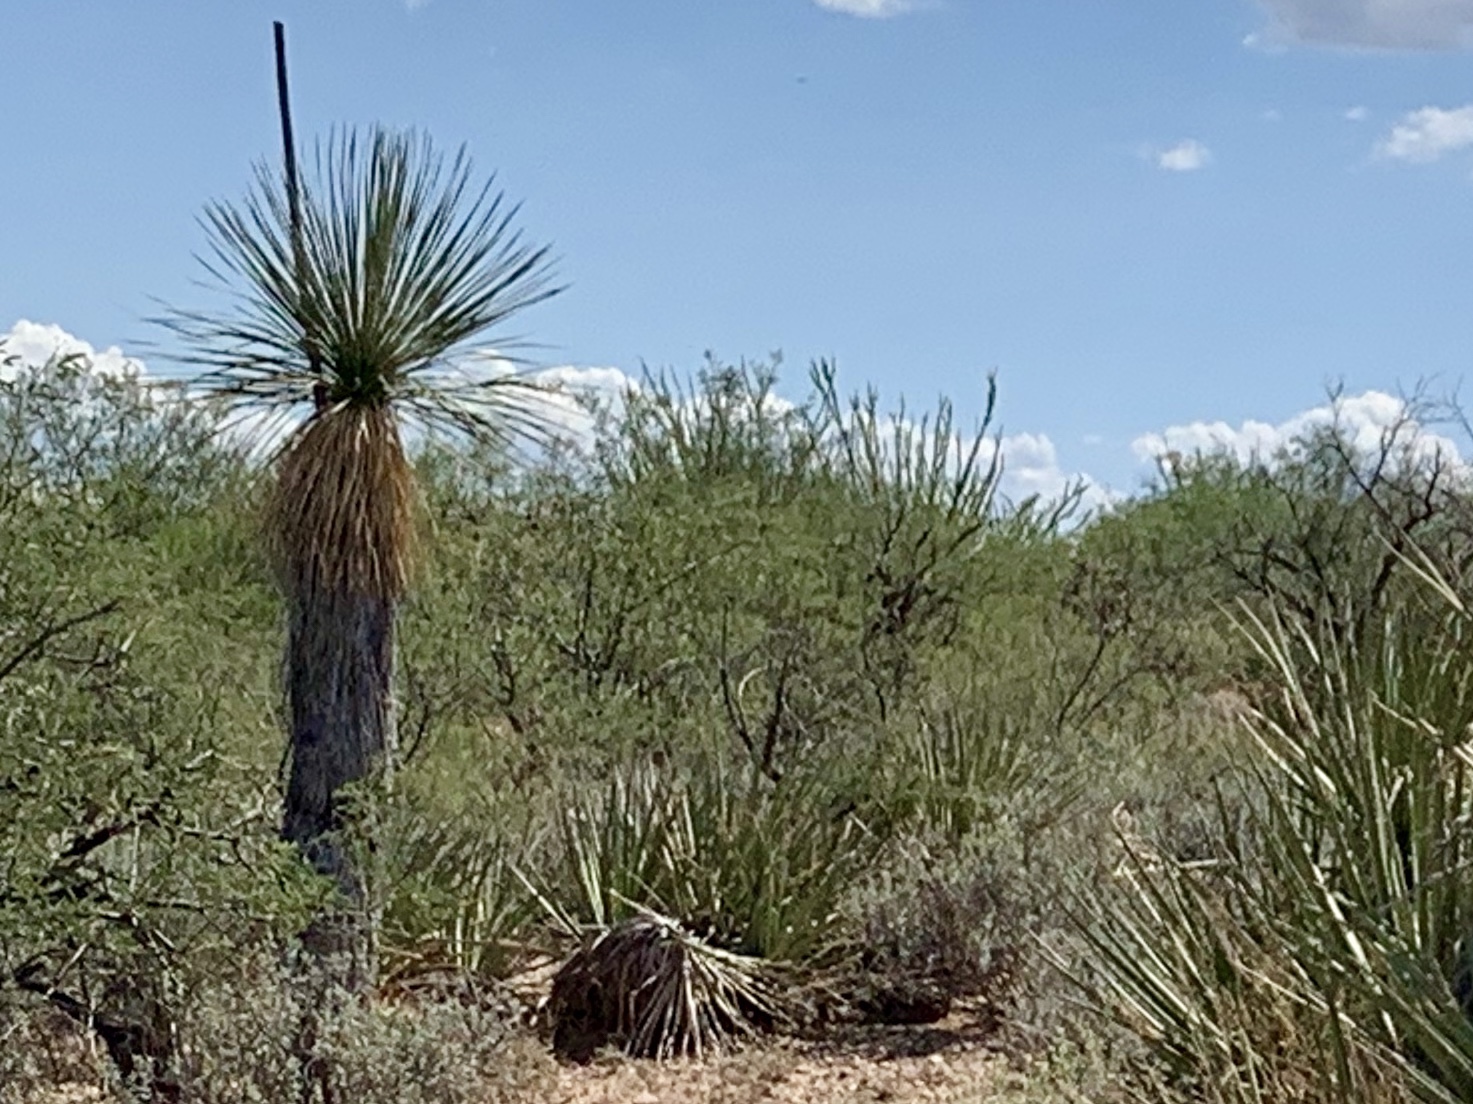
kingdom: Plantae
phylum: Tracheophyta
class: Liliopsida
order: Asparagales
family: Asparagaceae
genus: Yucca
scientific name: Yucca elata
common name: Palmella
